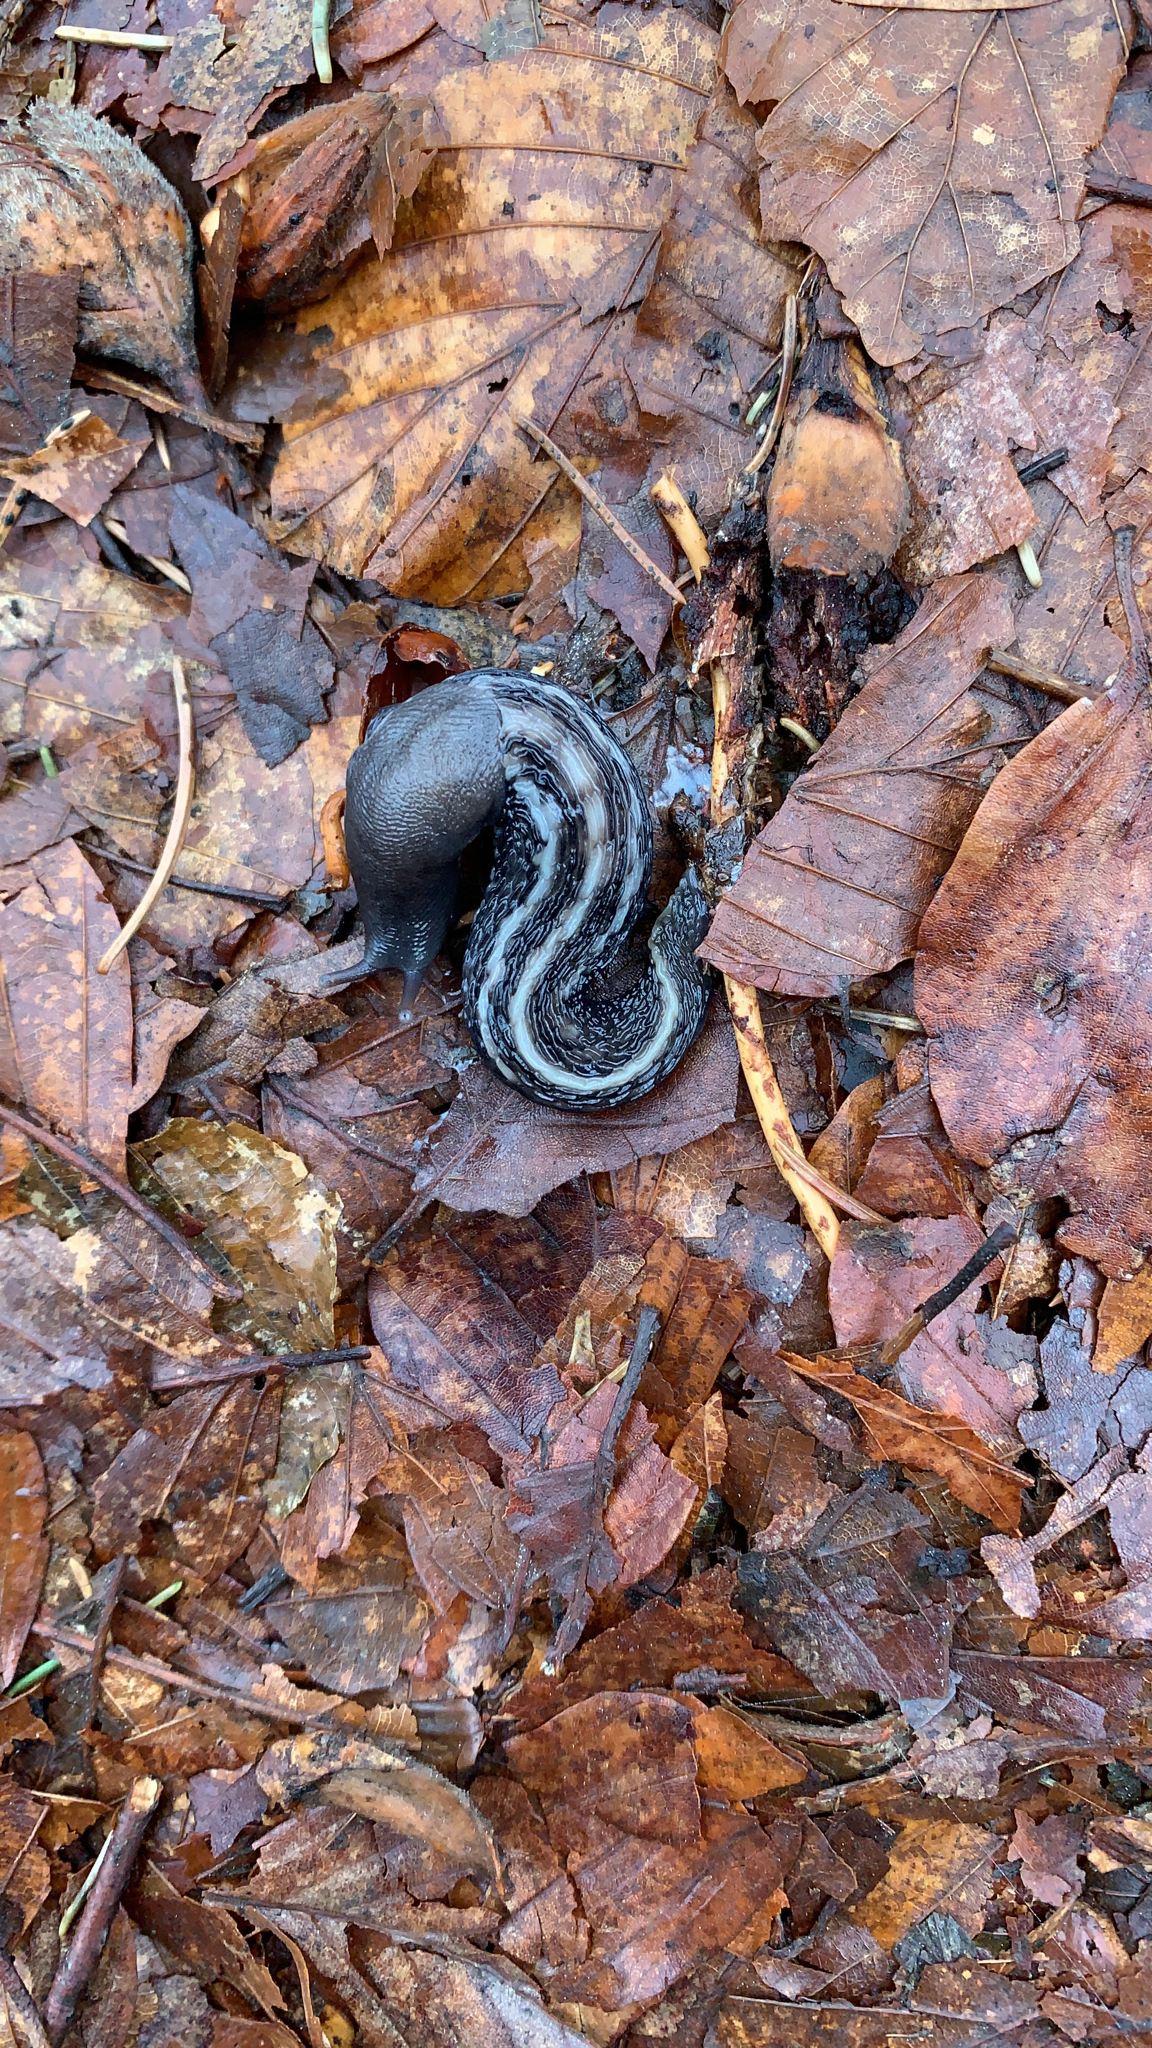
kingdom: Animalia
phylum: Mollusca
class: Gastropoda
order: Stylommatophora
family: Limacidae
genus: Limax
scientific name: Limax cinereoniger
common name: Ash-black slug
